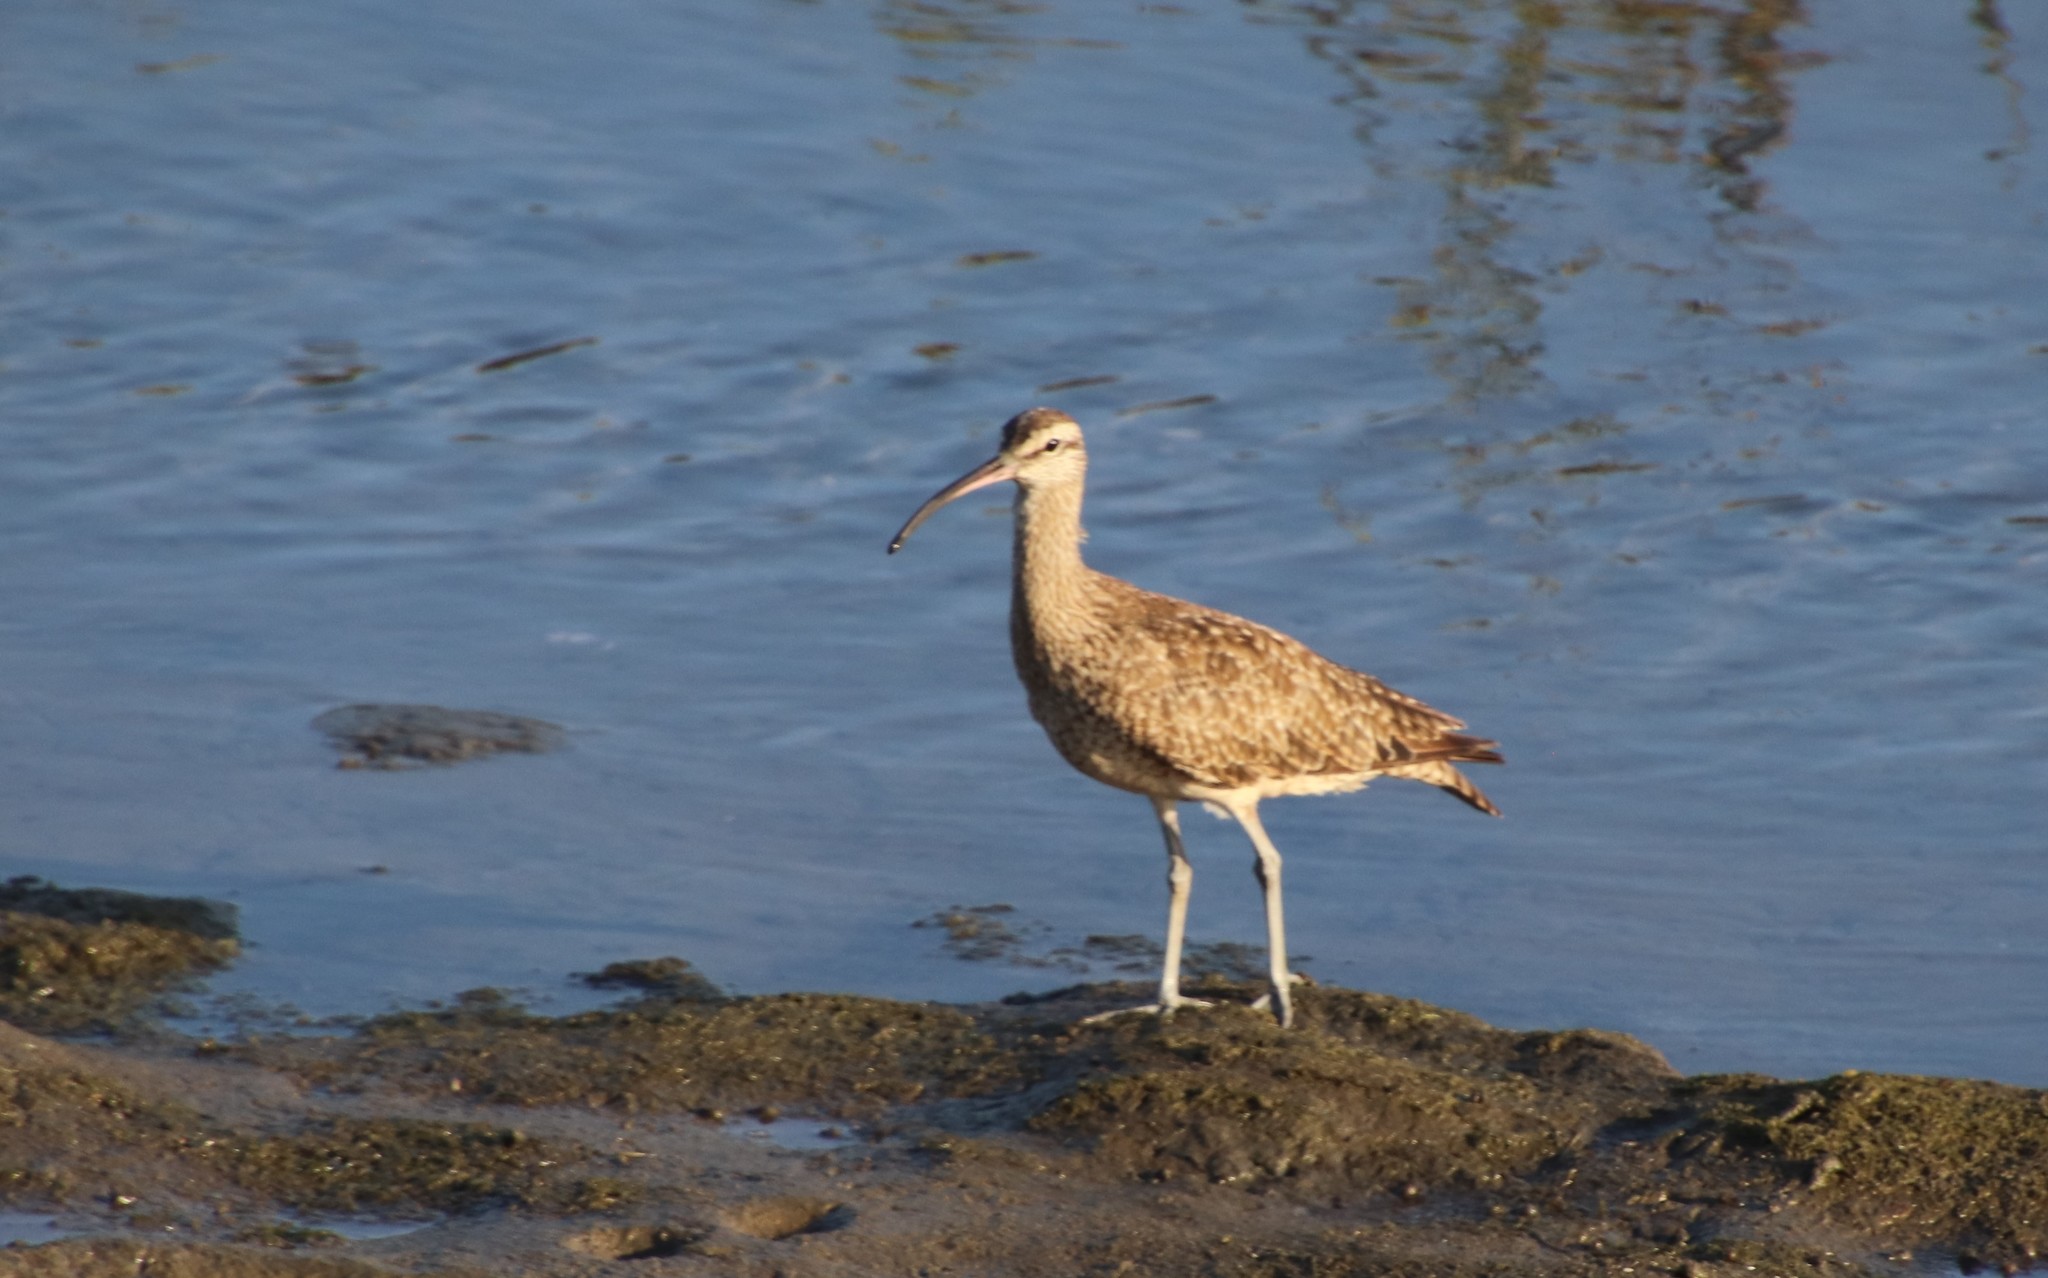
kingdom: Animalia
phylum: Chordata
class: Aves
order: Charadriiformes
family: Scolopacidae
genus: Numenius
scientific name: Numenius phaeopus
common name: Whimbrel
